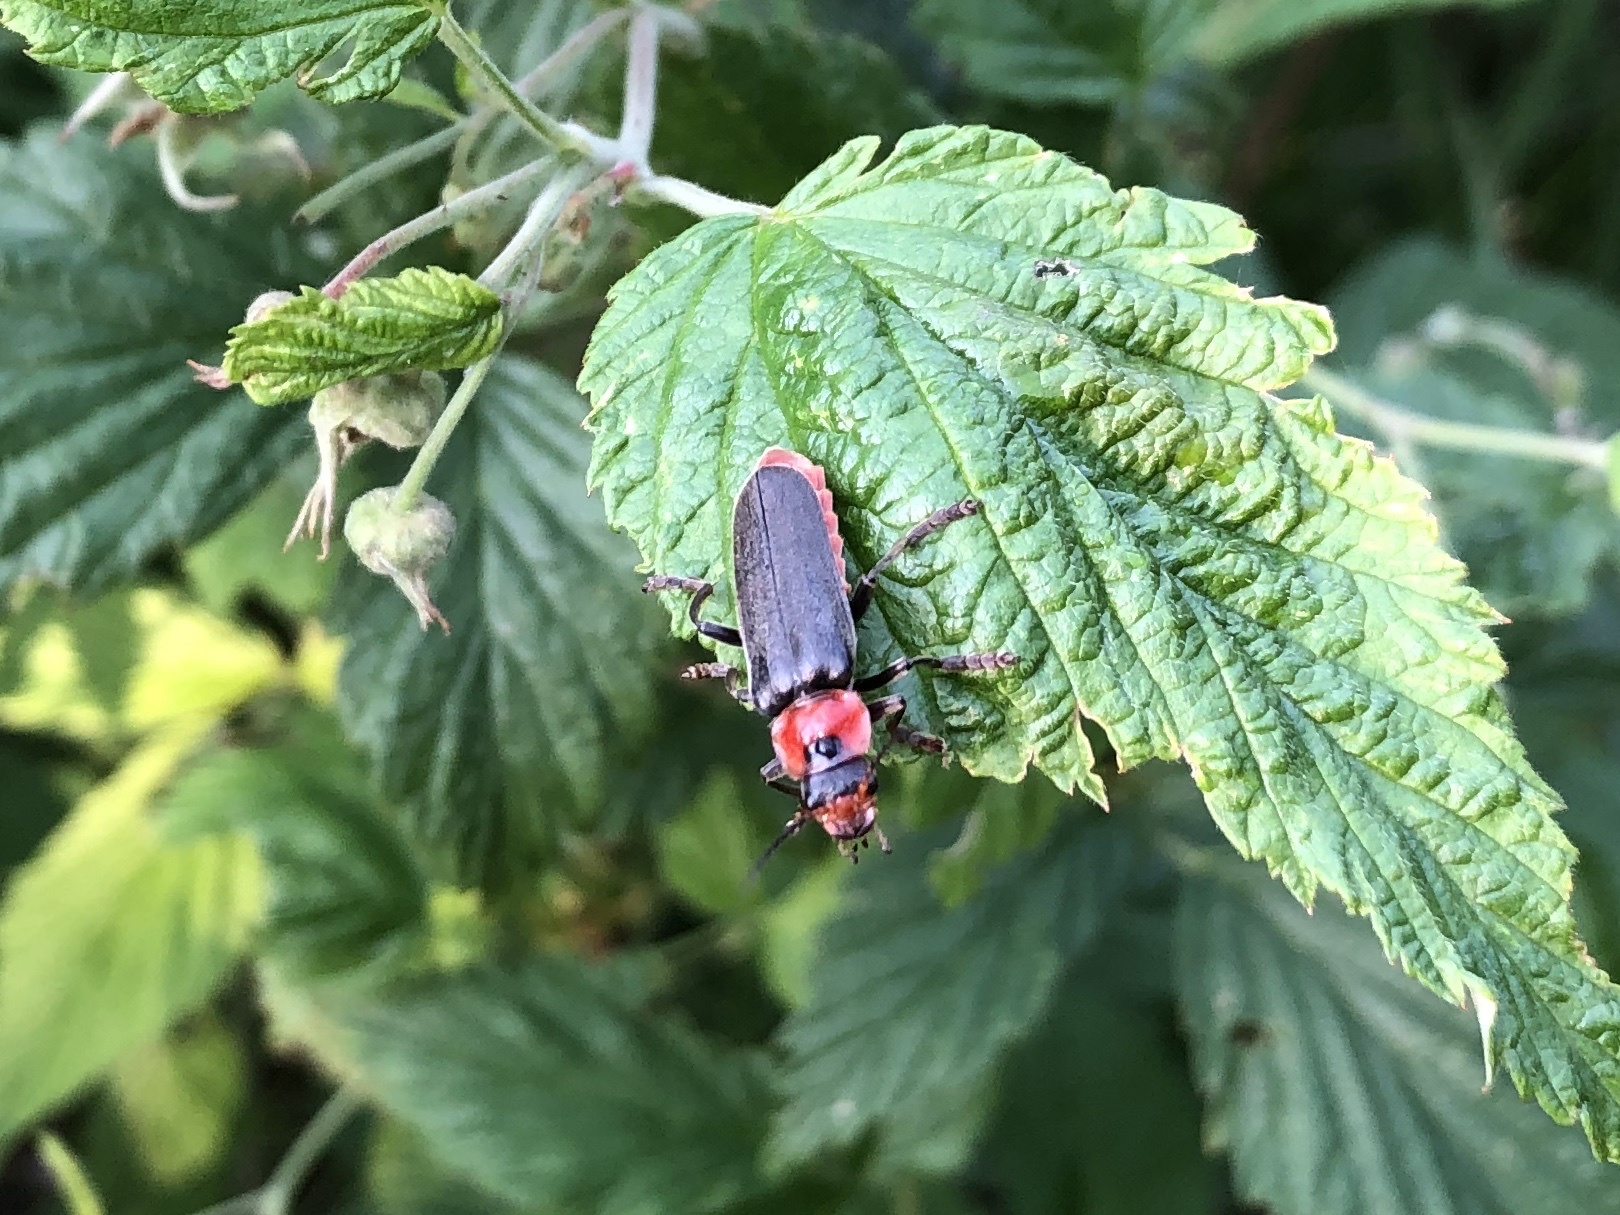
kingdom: Animalia
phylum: Arthropoda
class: Insecta
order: Coleoptera
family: Cantharidae
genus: Cantharis
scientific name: Cantharis fusca
